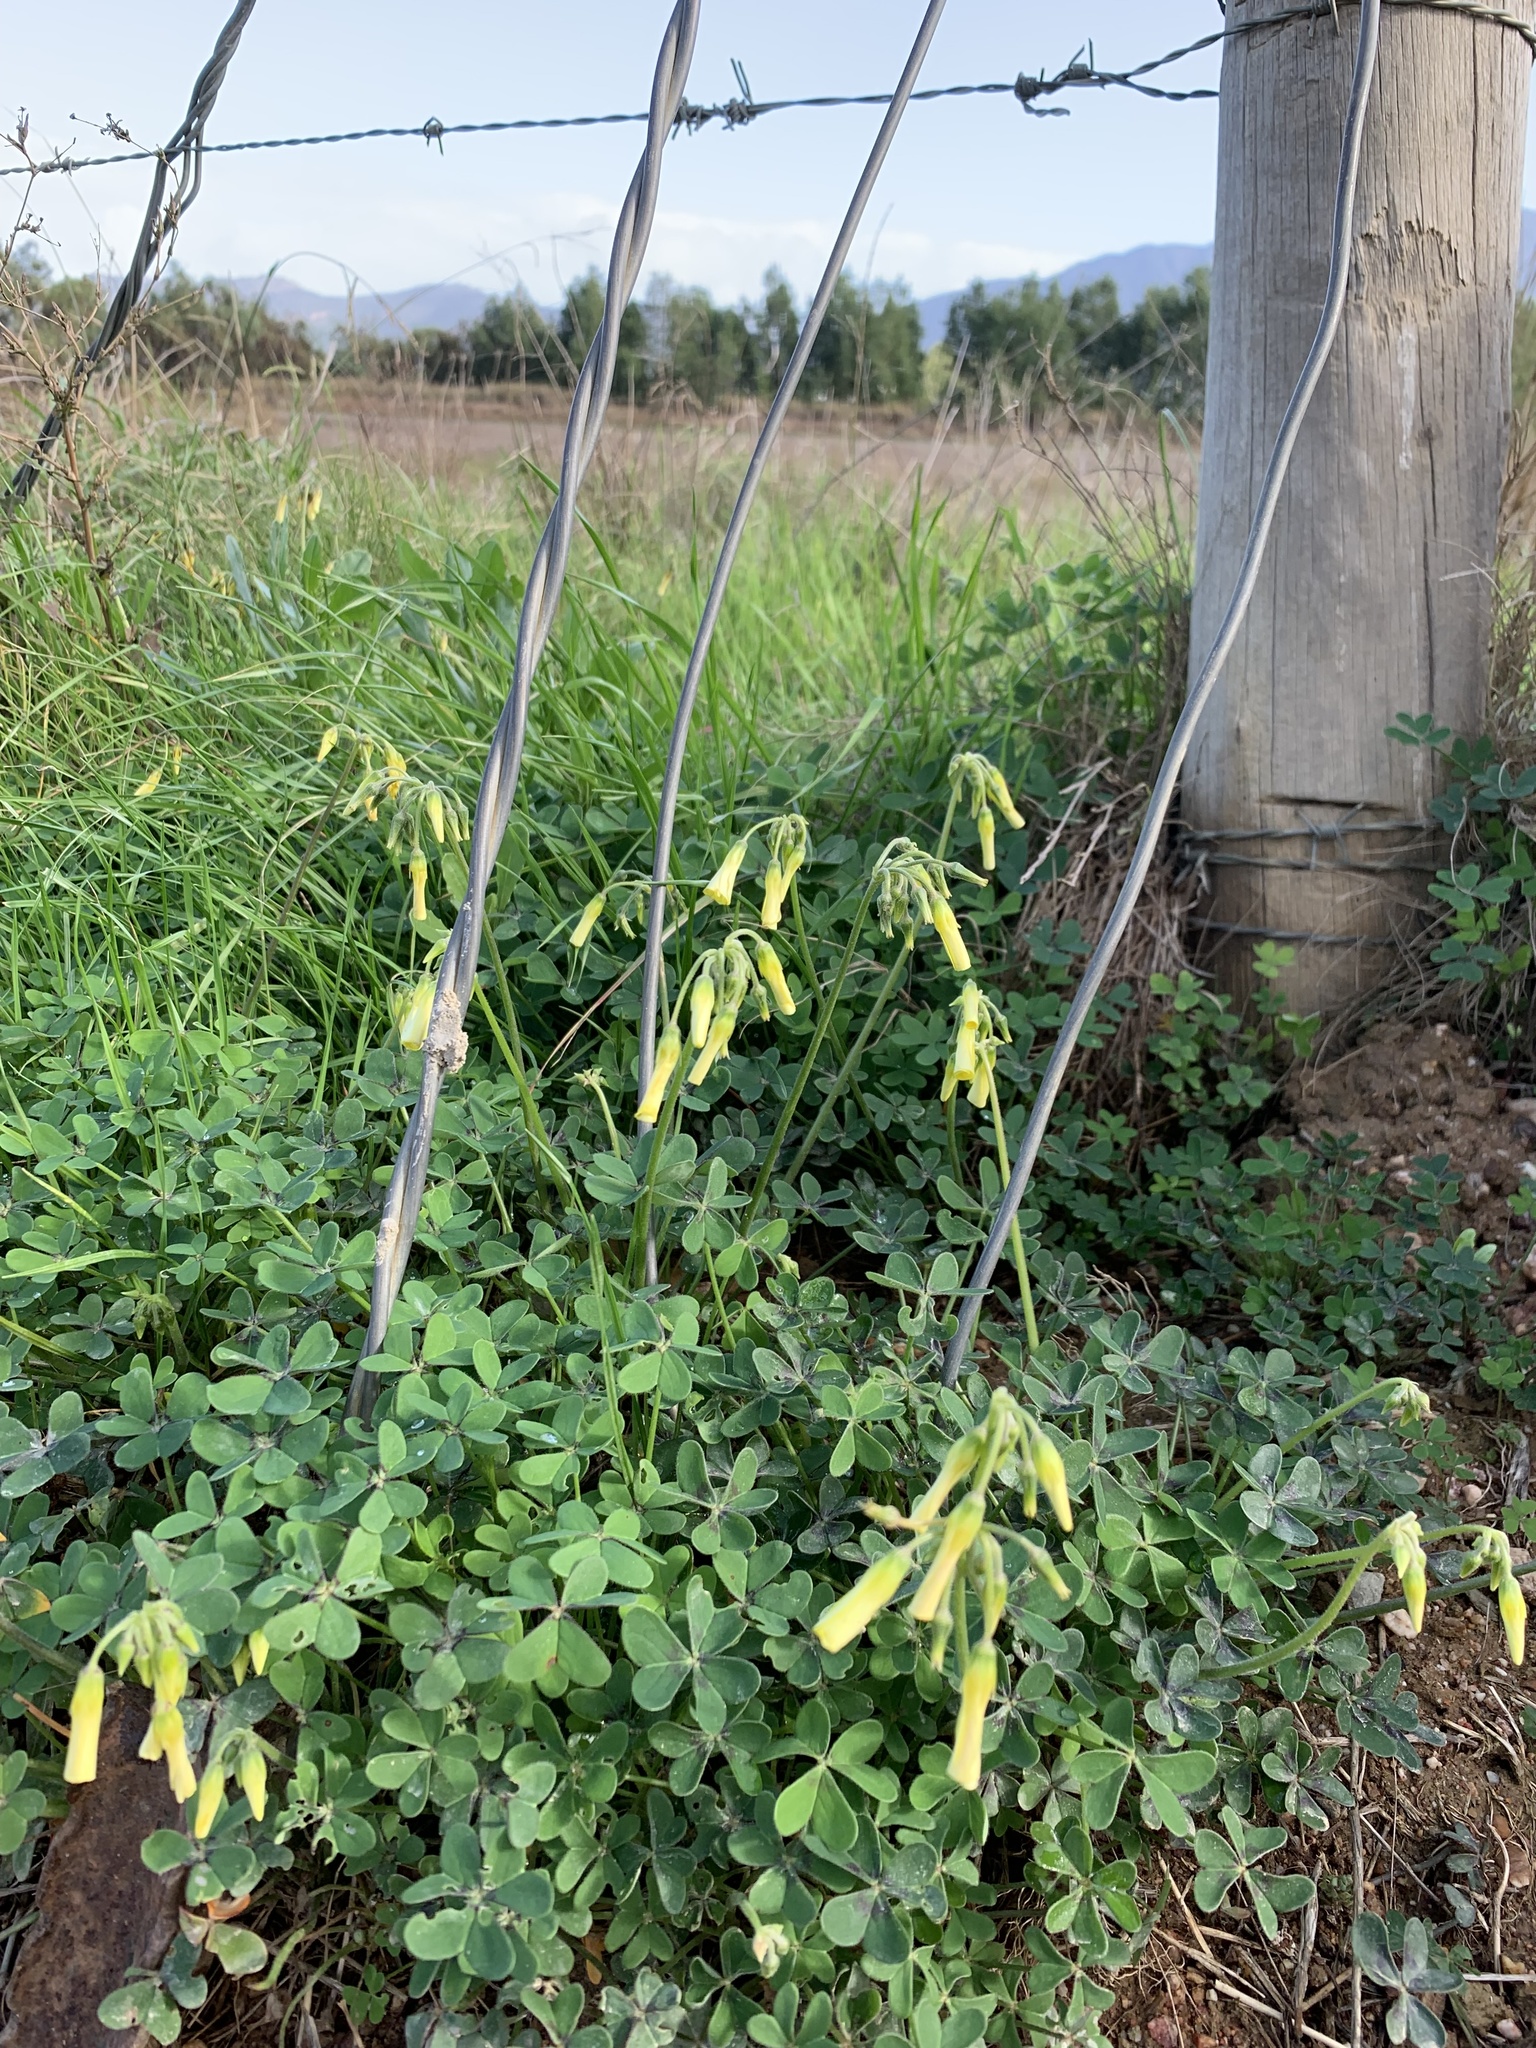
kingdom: Plantae
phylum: Tracheophyta
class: Magnoliopsida
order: Oxalidales
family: Oxalidaceae
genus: Oxalis
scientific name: Oxalis pes-caprae
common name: Bermuda-buttercup
